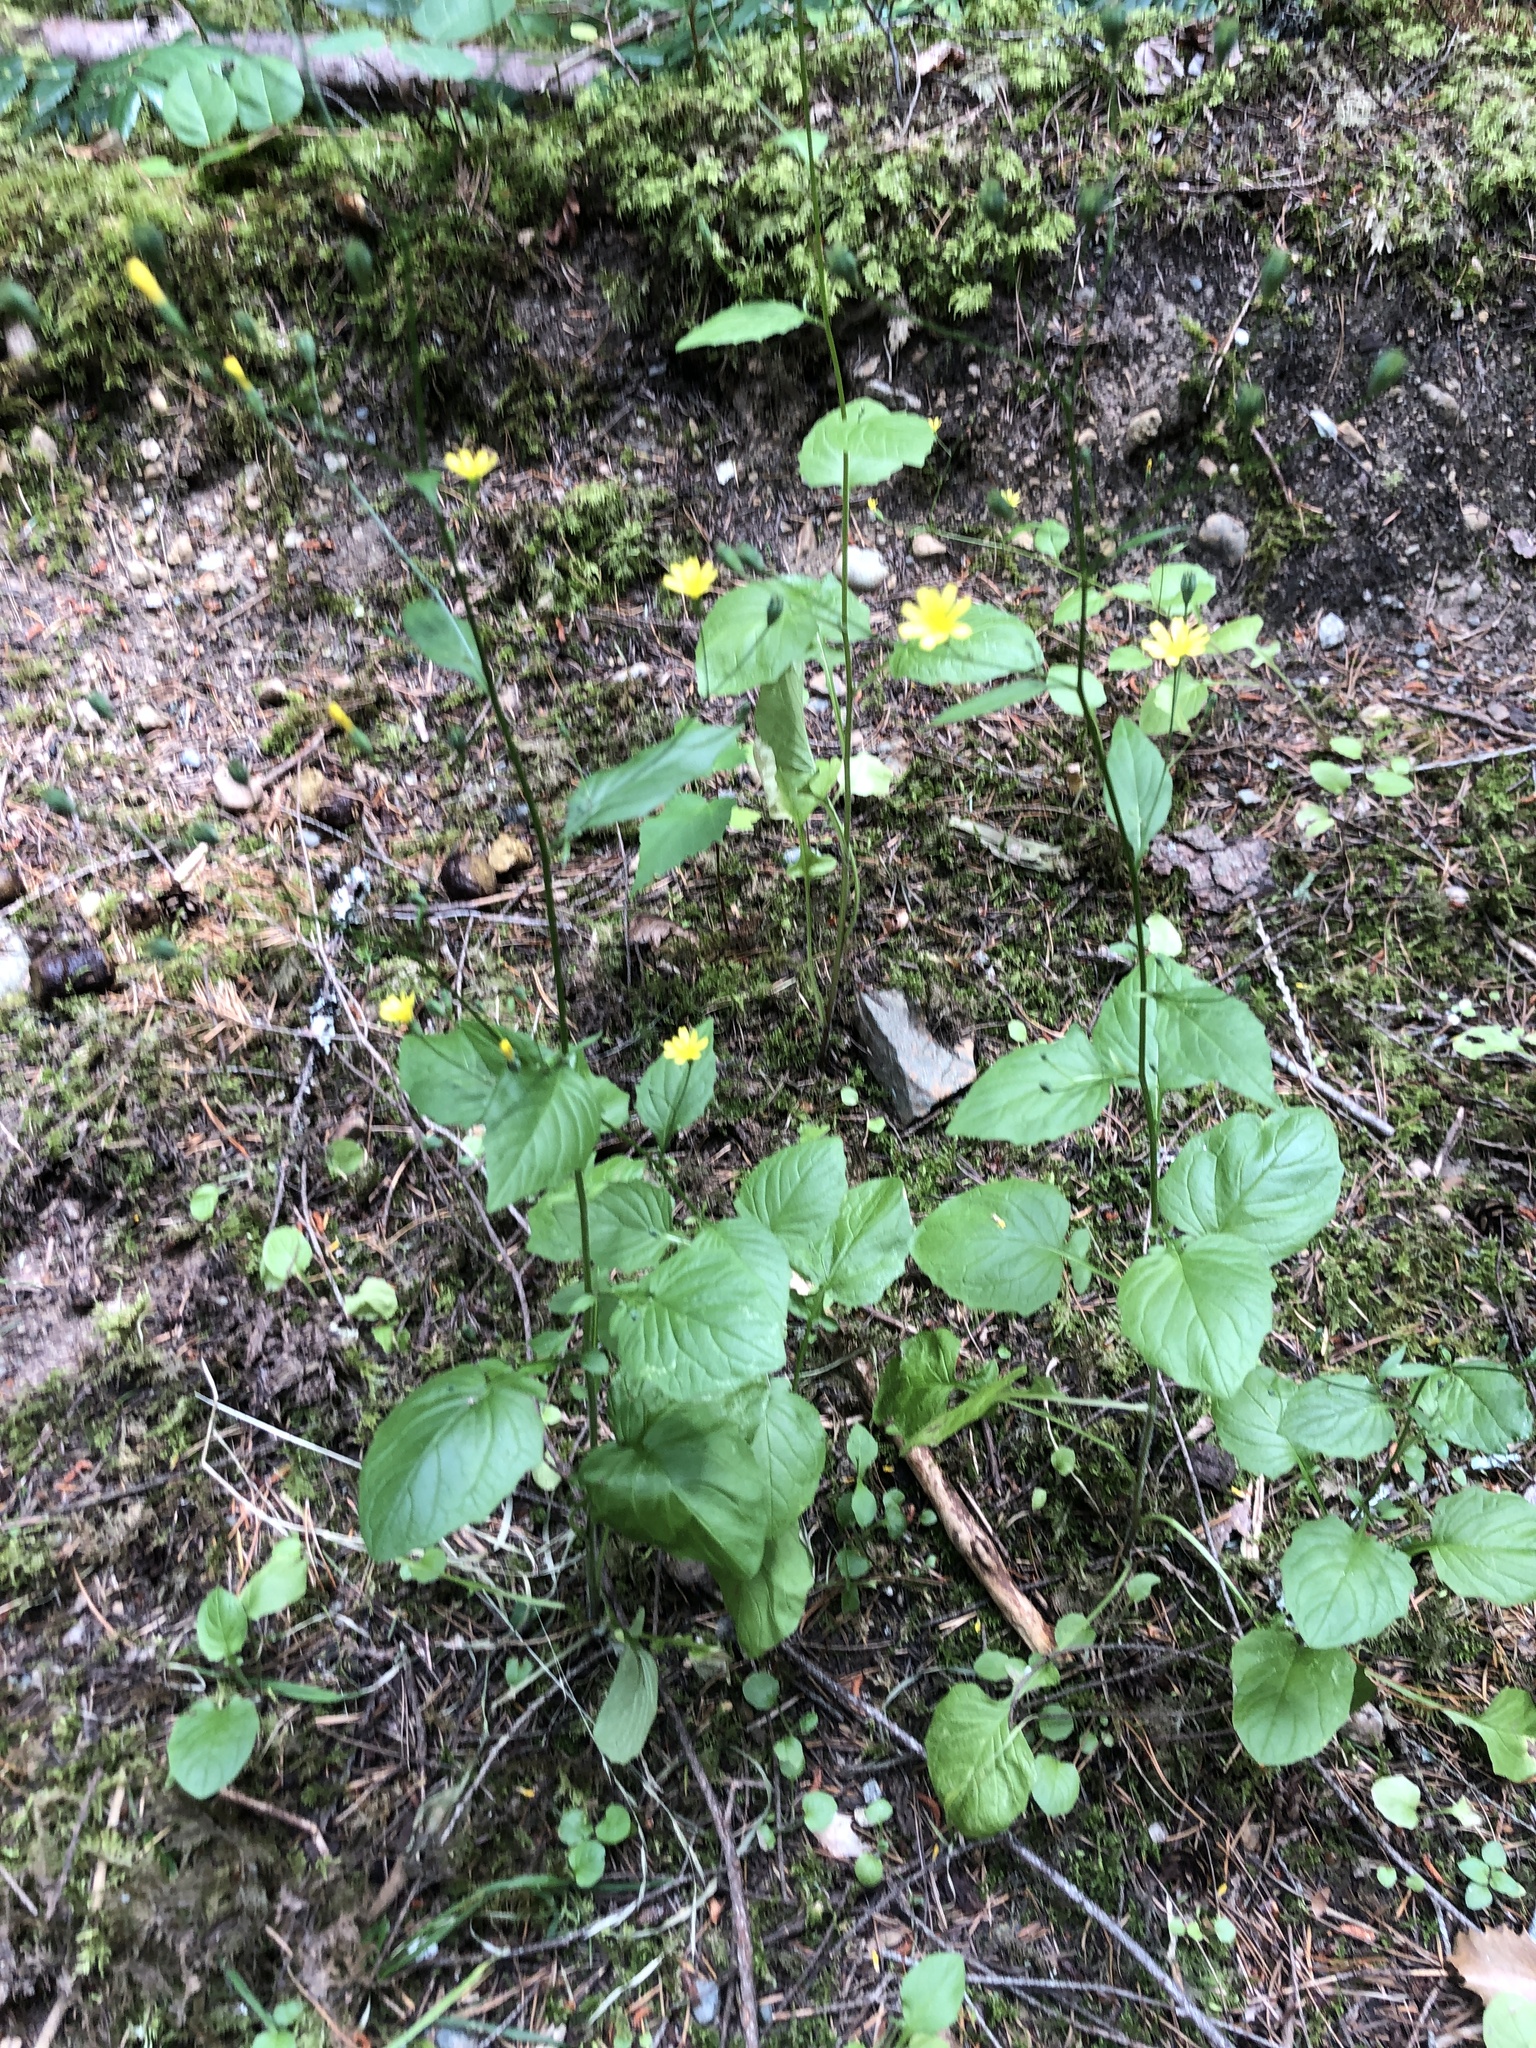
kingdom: Plantae
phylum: Tracheophyta
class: Magnoliopsida
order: Asterales
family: Asteraceae
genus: Lapsana
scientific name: Lapsana communis
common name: Nipplewort
